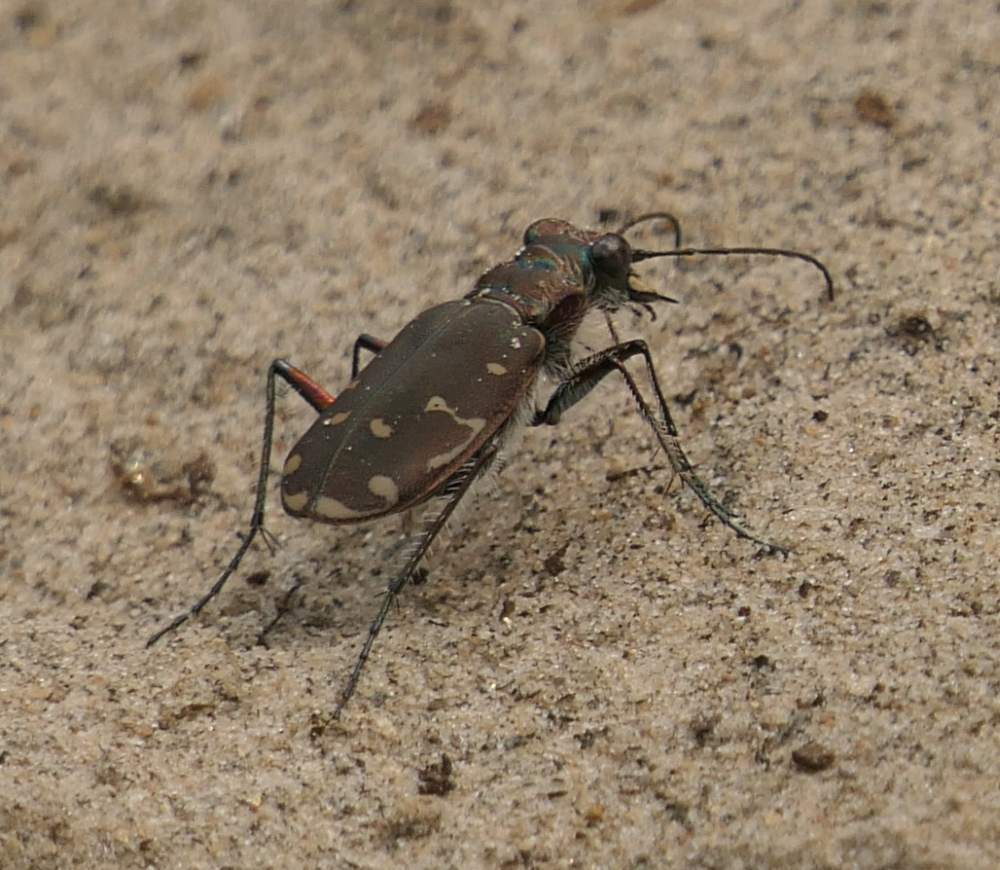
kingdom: Animalia
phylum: Arthropoda
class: Insecta
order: Coleoptera
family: Carabidae
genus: Cicindela
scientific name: Cicindela duodecimguttata
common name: Twelve-spotted tiger beetle
